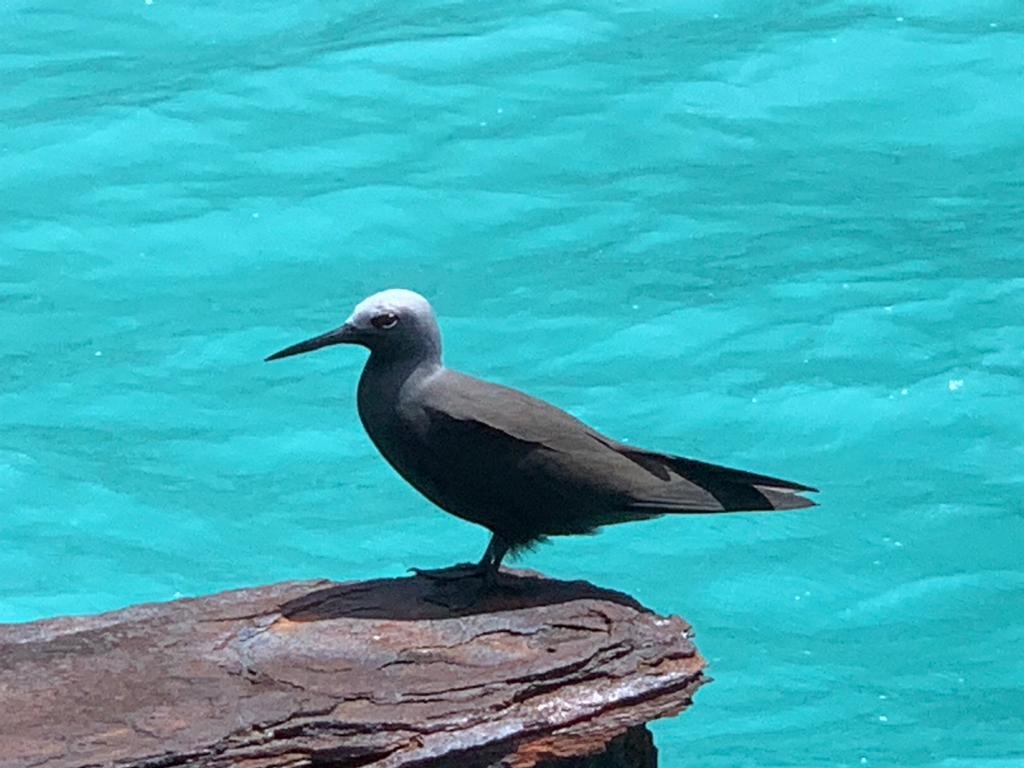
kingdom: Animalia
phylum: Chordata
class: Aves
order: Charadriiformes
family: Laridae
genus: Anous
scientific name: Anous stolidus
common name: Brown noddy
